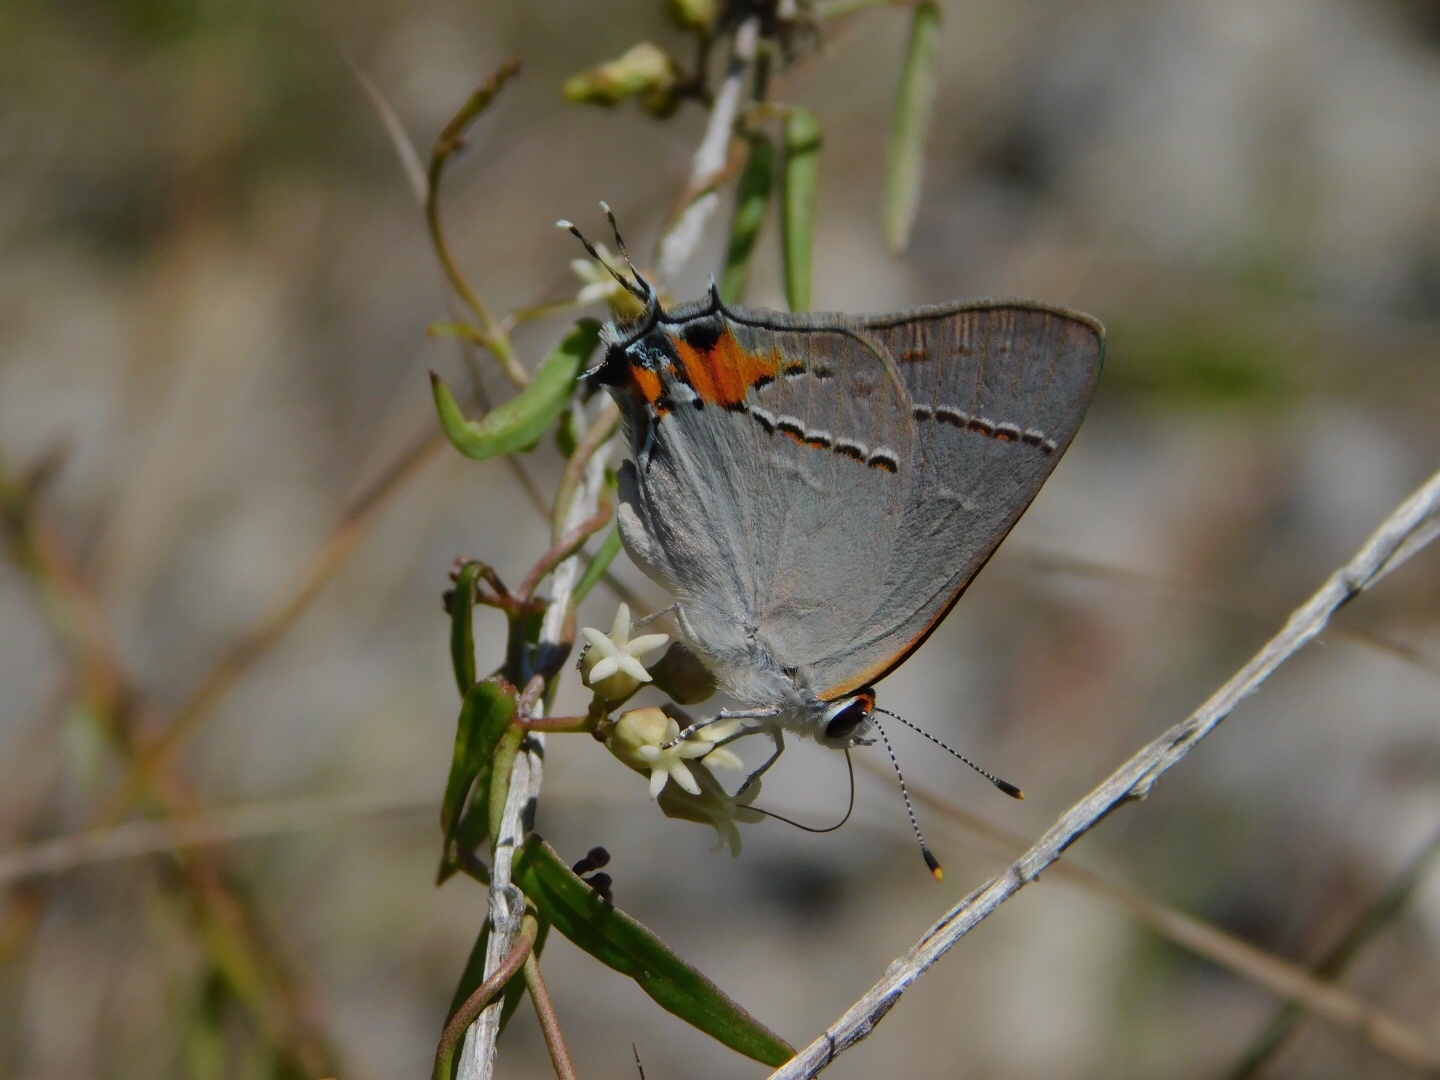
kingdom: Animalia
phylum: Arthropoda
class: Insecta
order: Lepidoptera
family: Lycaenidae
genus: Strymon
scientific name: Strymon melinus
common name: Gray hairstreak
